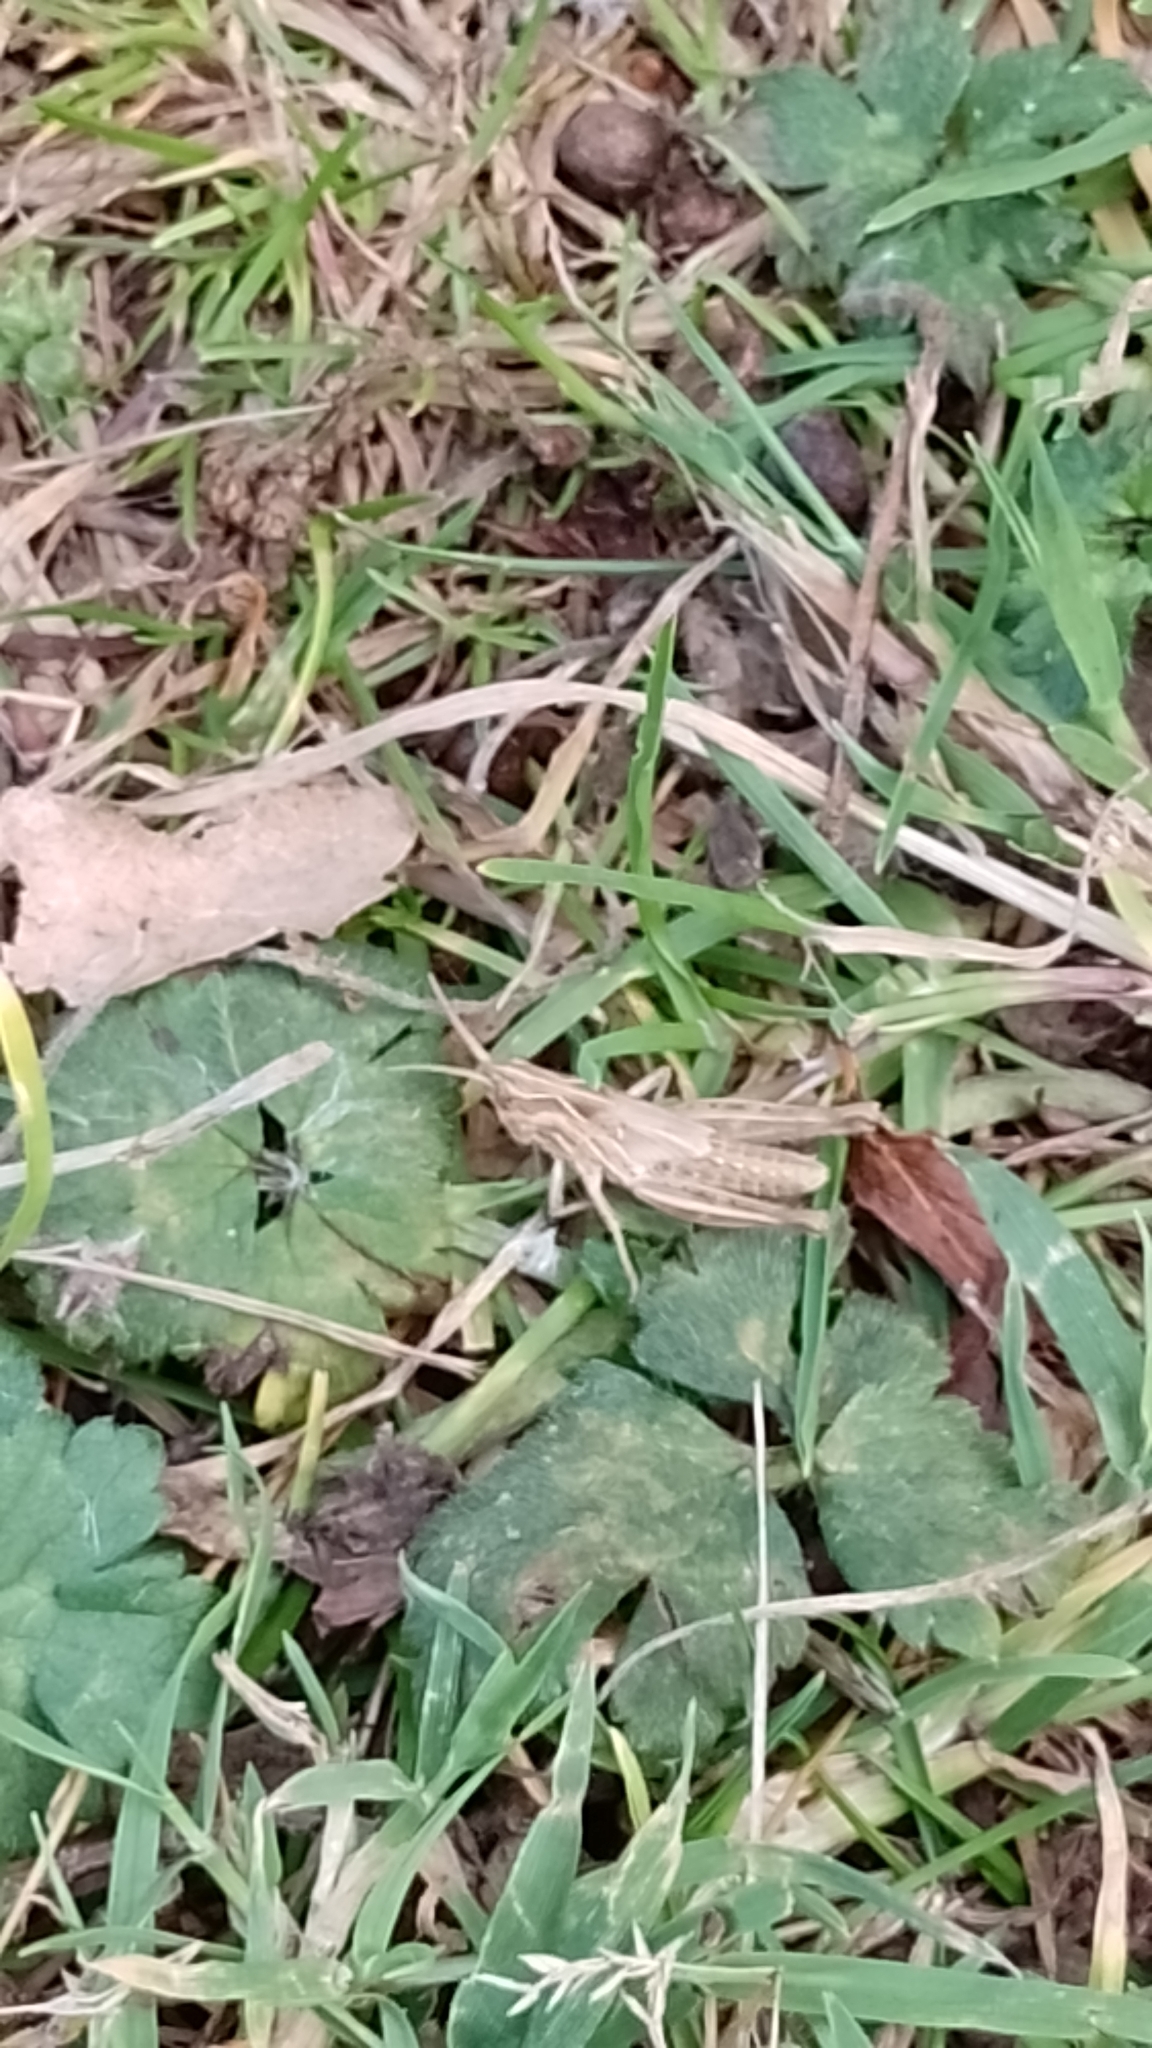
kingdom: Animalia
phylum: Arthropoda
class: Insecta
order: Orthoptera
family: Acrididae
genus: Chorthippus
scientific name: Chorthippus brunneus
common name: Field grasshopper
